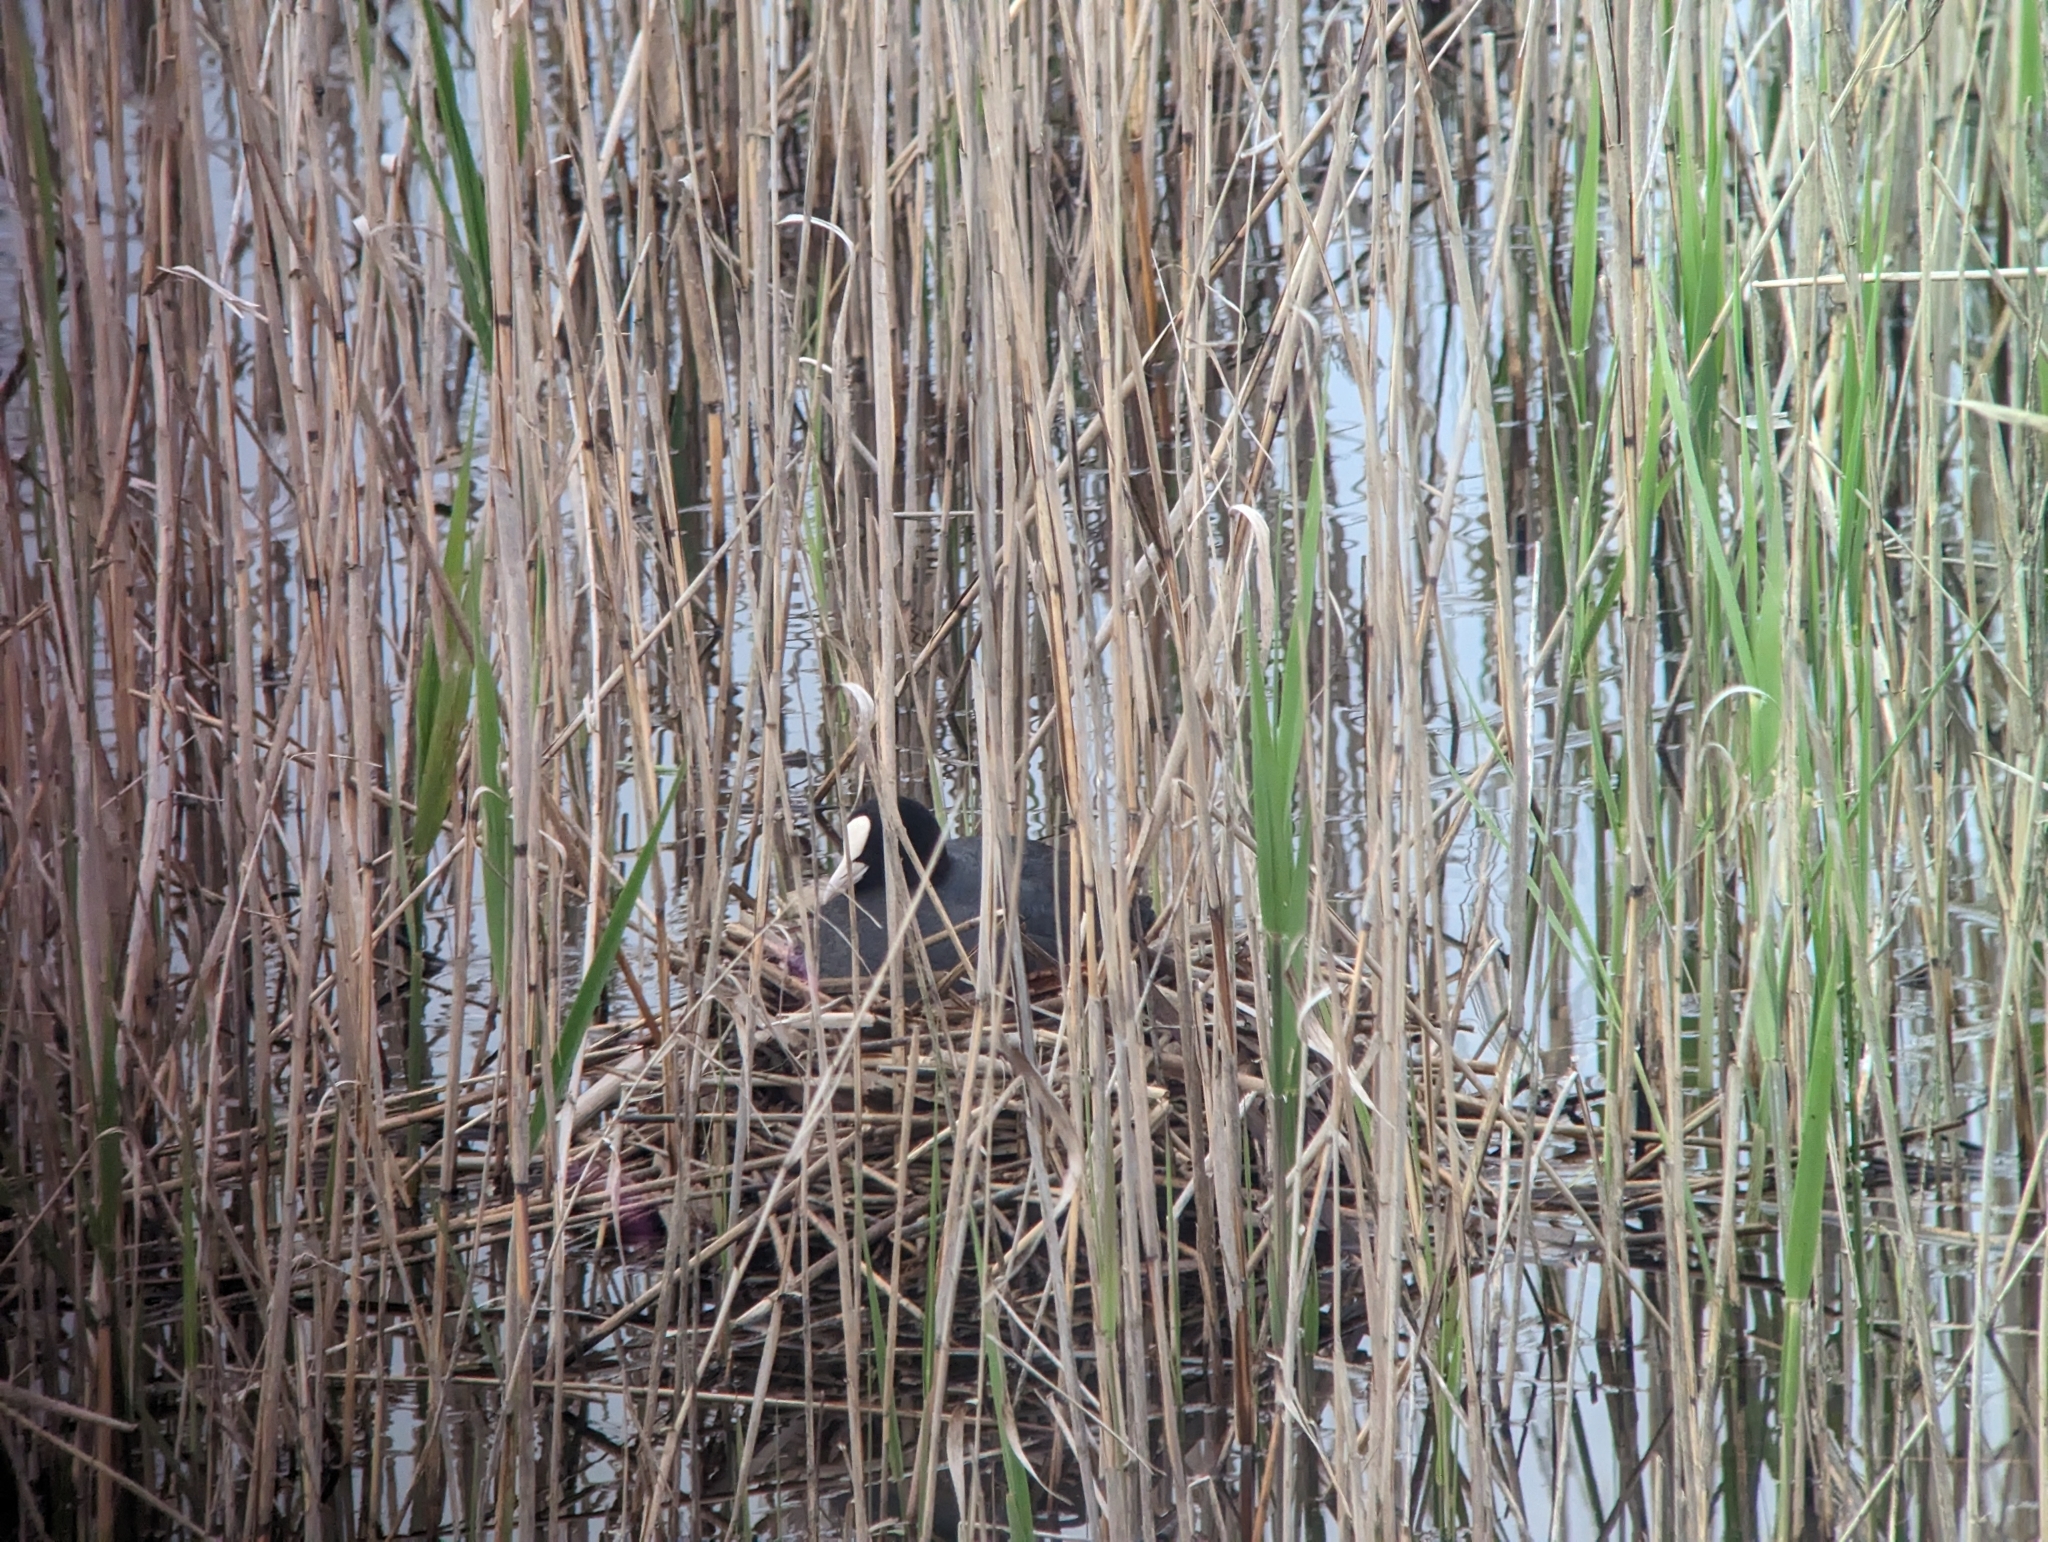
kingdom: Animalia
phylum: Chordata
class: Aves
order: Gruiformes
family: Rallidae
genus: Fulica
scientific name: Fulica atra
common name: Eurasian coot
